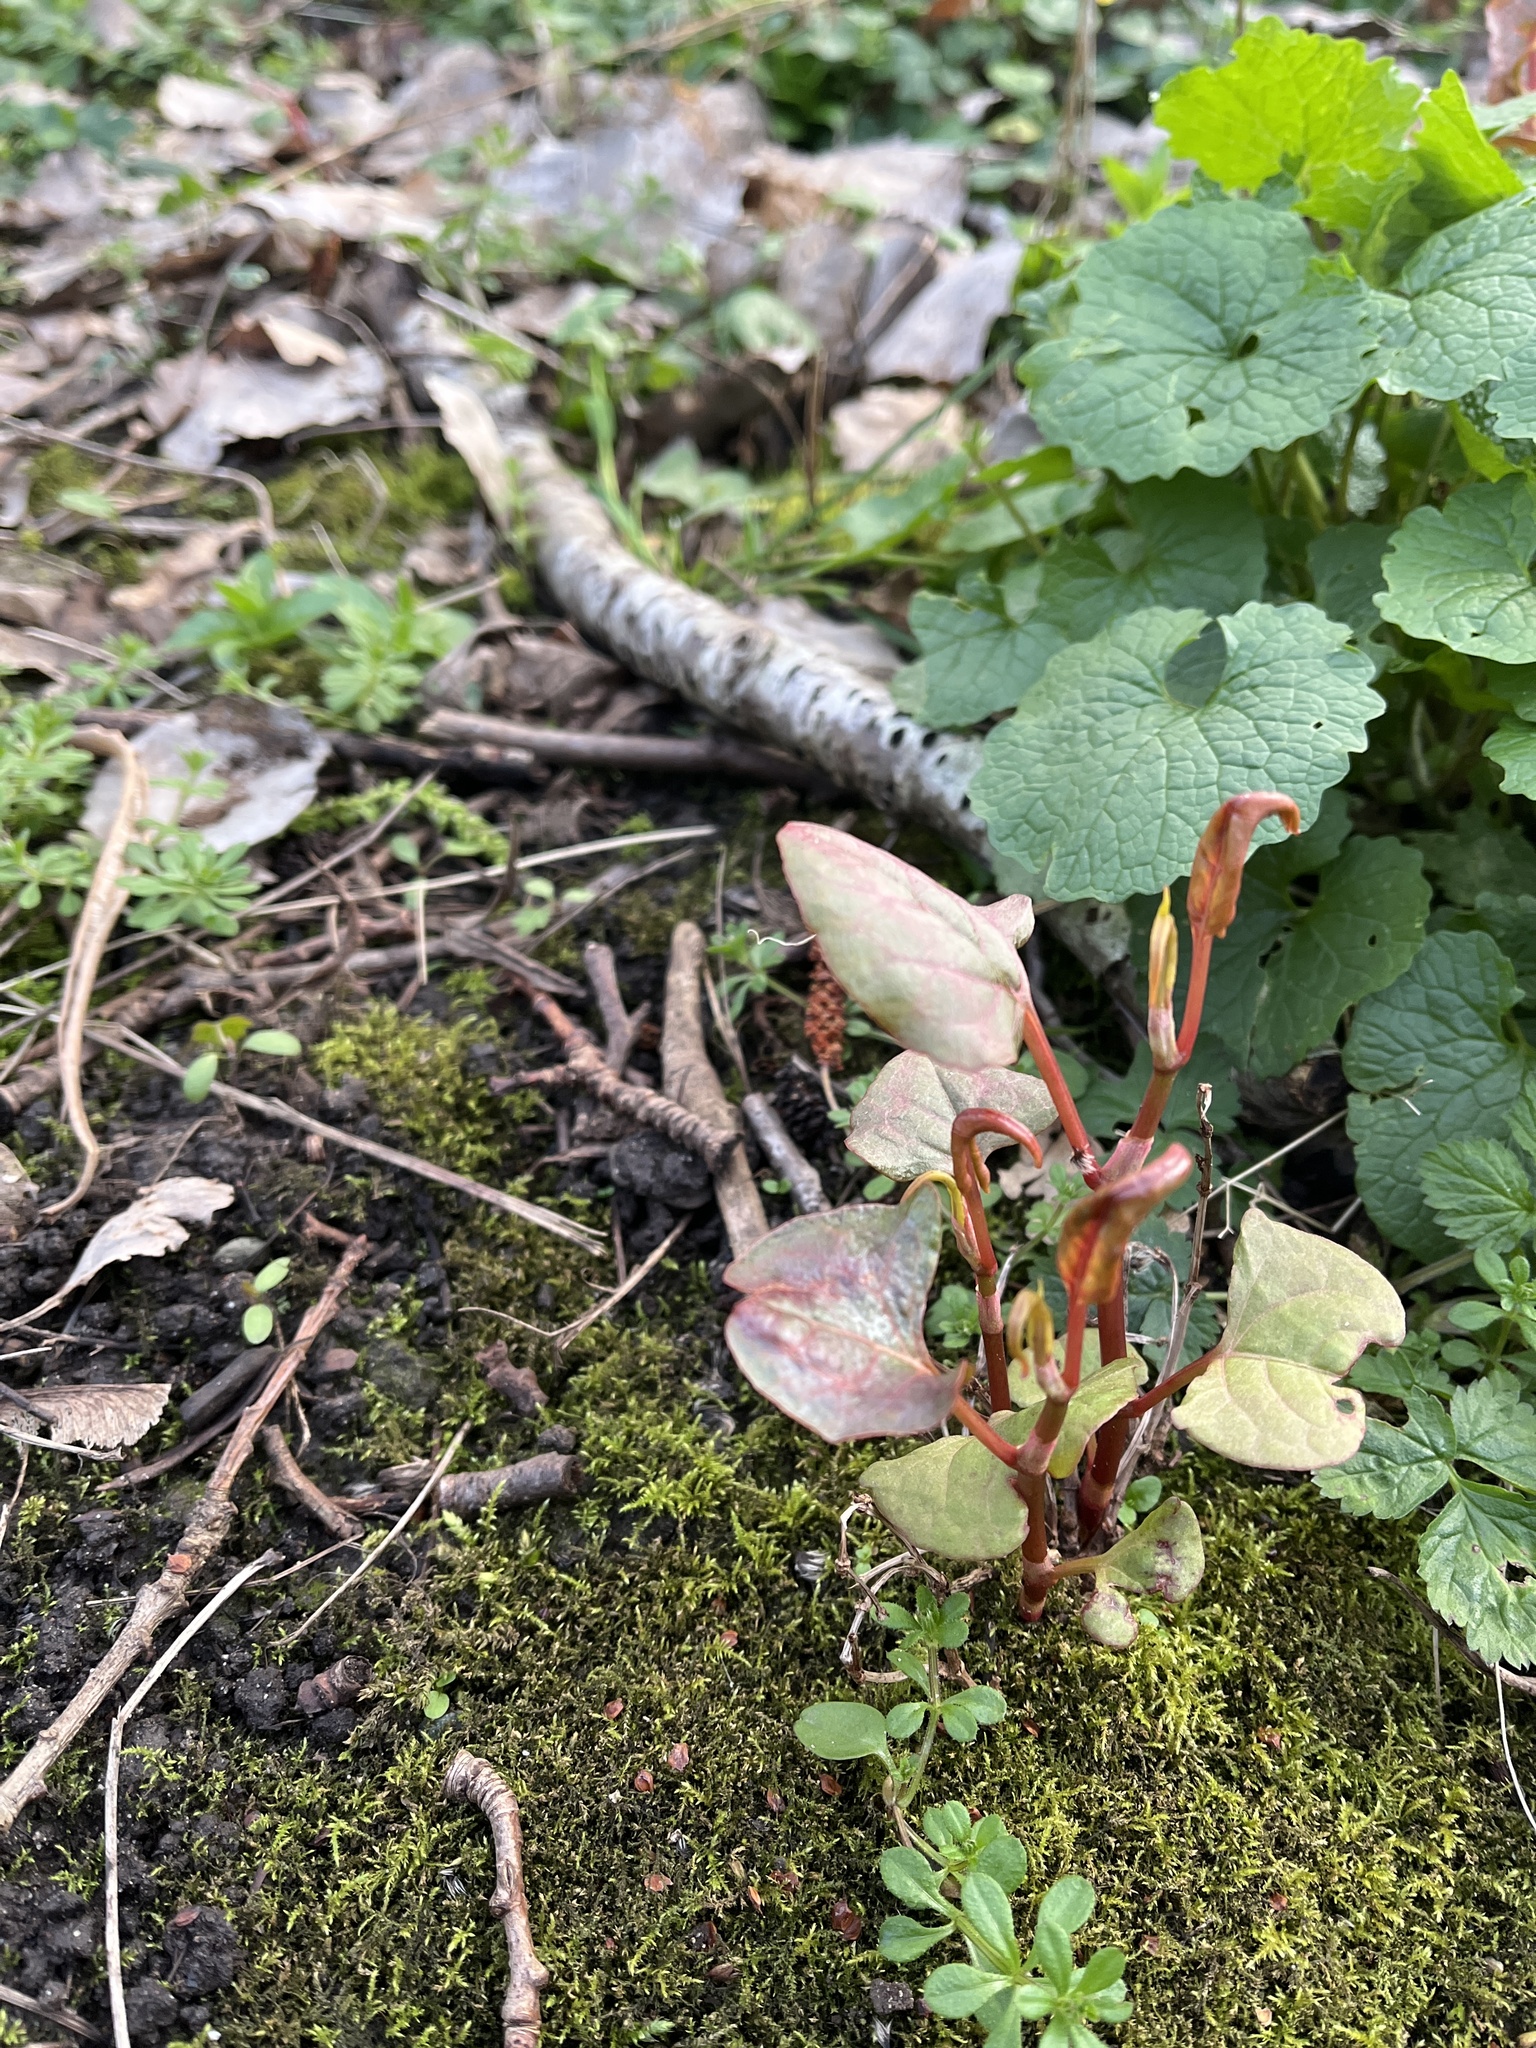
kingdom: Plantae
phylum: Tracheophyta
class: Magnoliopsida
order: Caryophyllales
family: Polygonaceae
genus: Reynoutria
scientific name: Reynoutria
